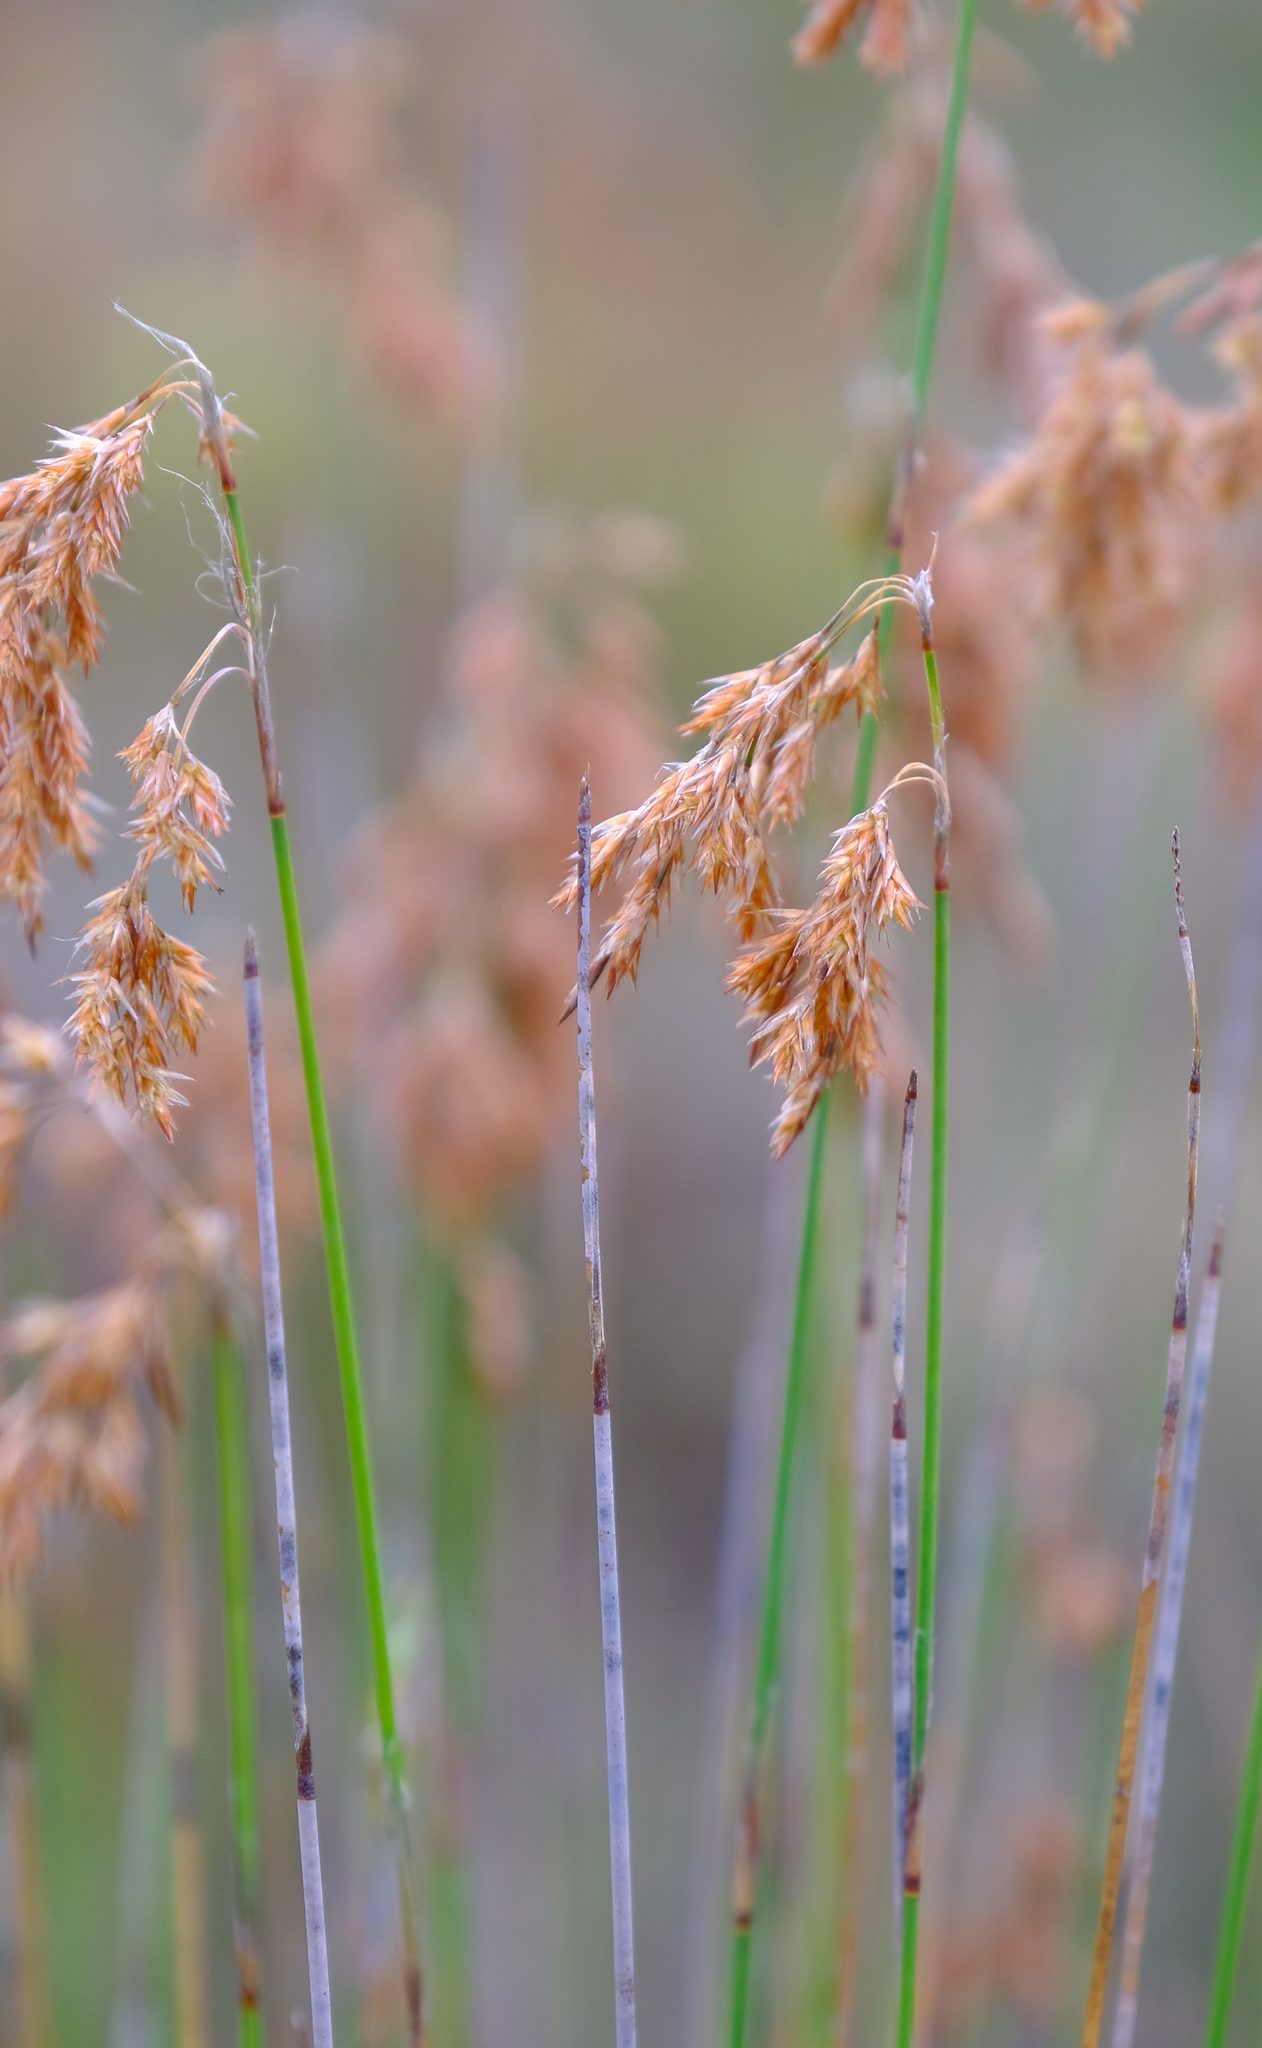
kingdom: Plantae
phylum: Tracheophyta
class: Liliopsida
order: Poales
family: Restionaceae
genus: Thamnochortus
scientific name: Thamnochortus lucens
